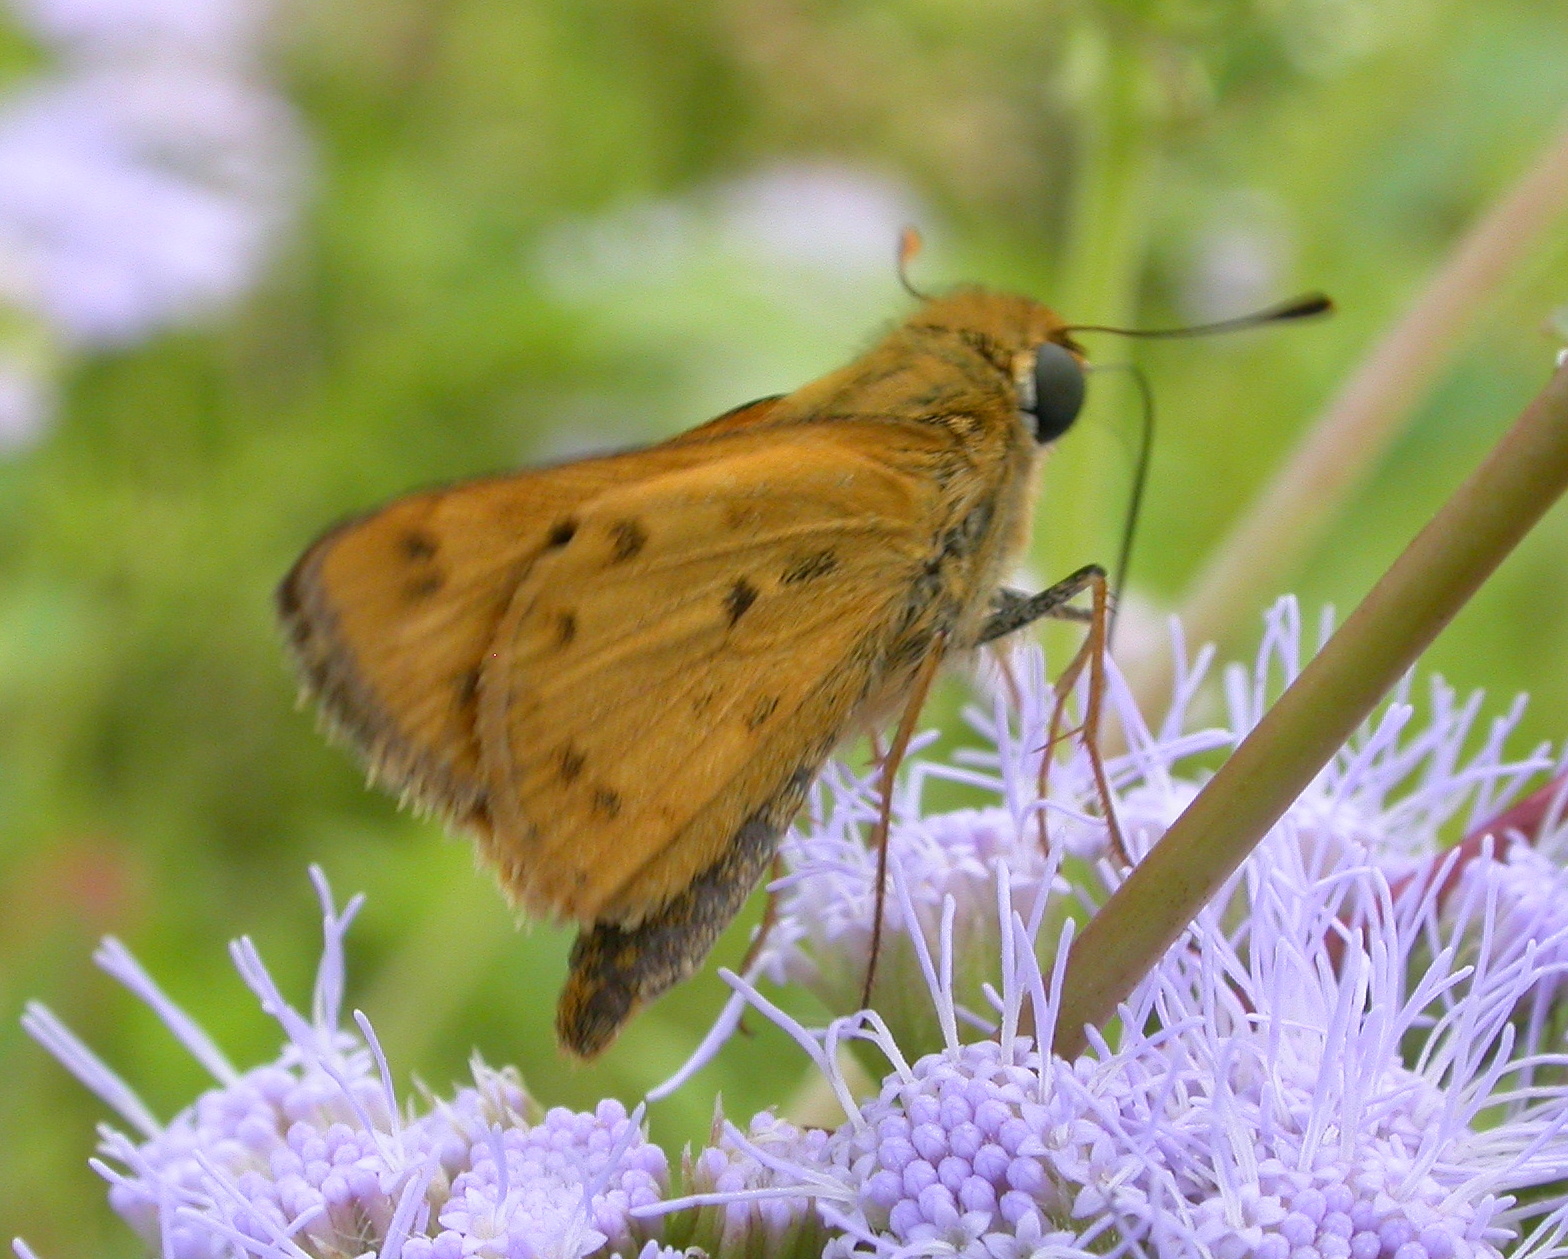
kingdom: Animalia
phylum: Arthropoda
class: Insecta
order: Lepidoptera
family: Hesperiidae
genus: Hylephila
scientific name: Hylephila phyleus
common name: Fiery skipper
